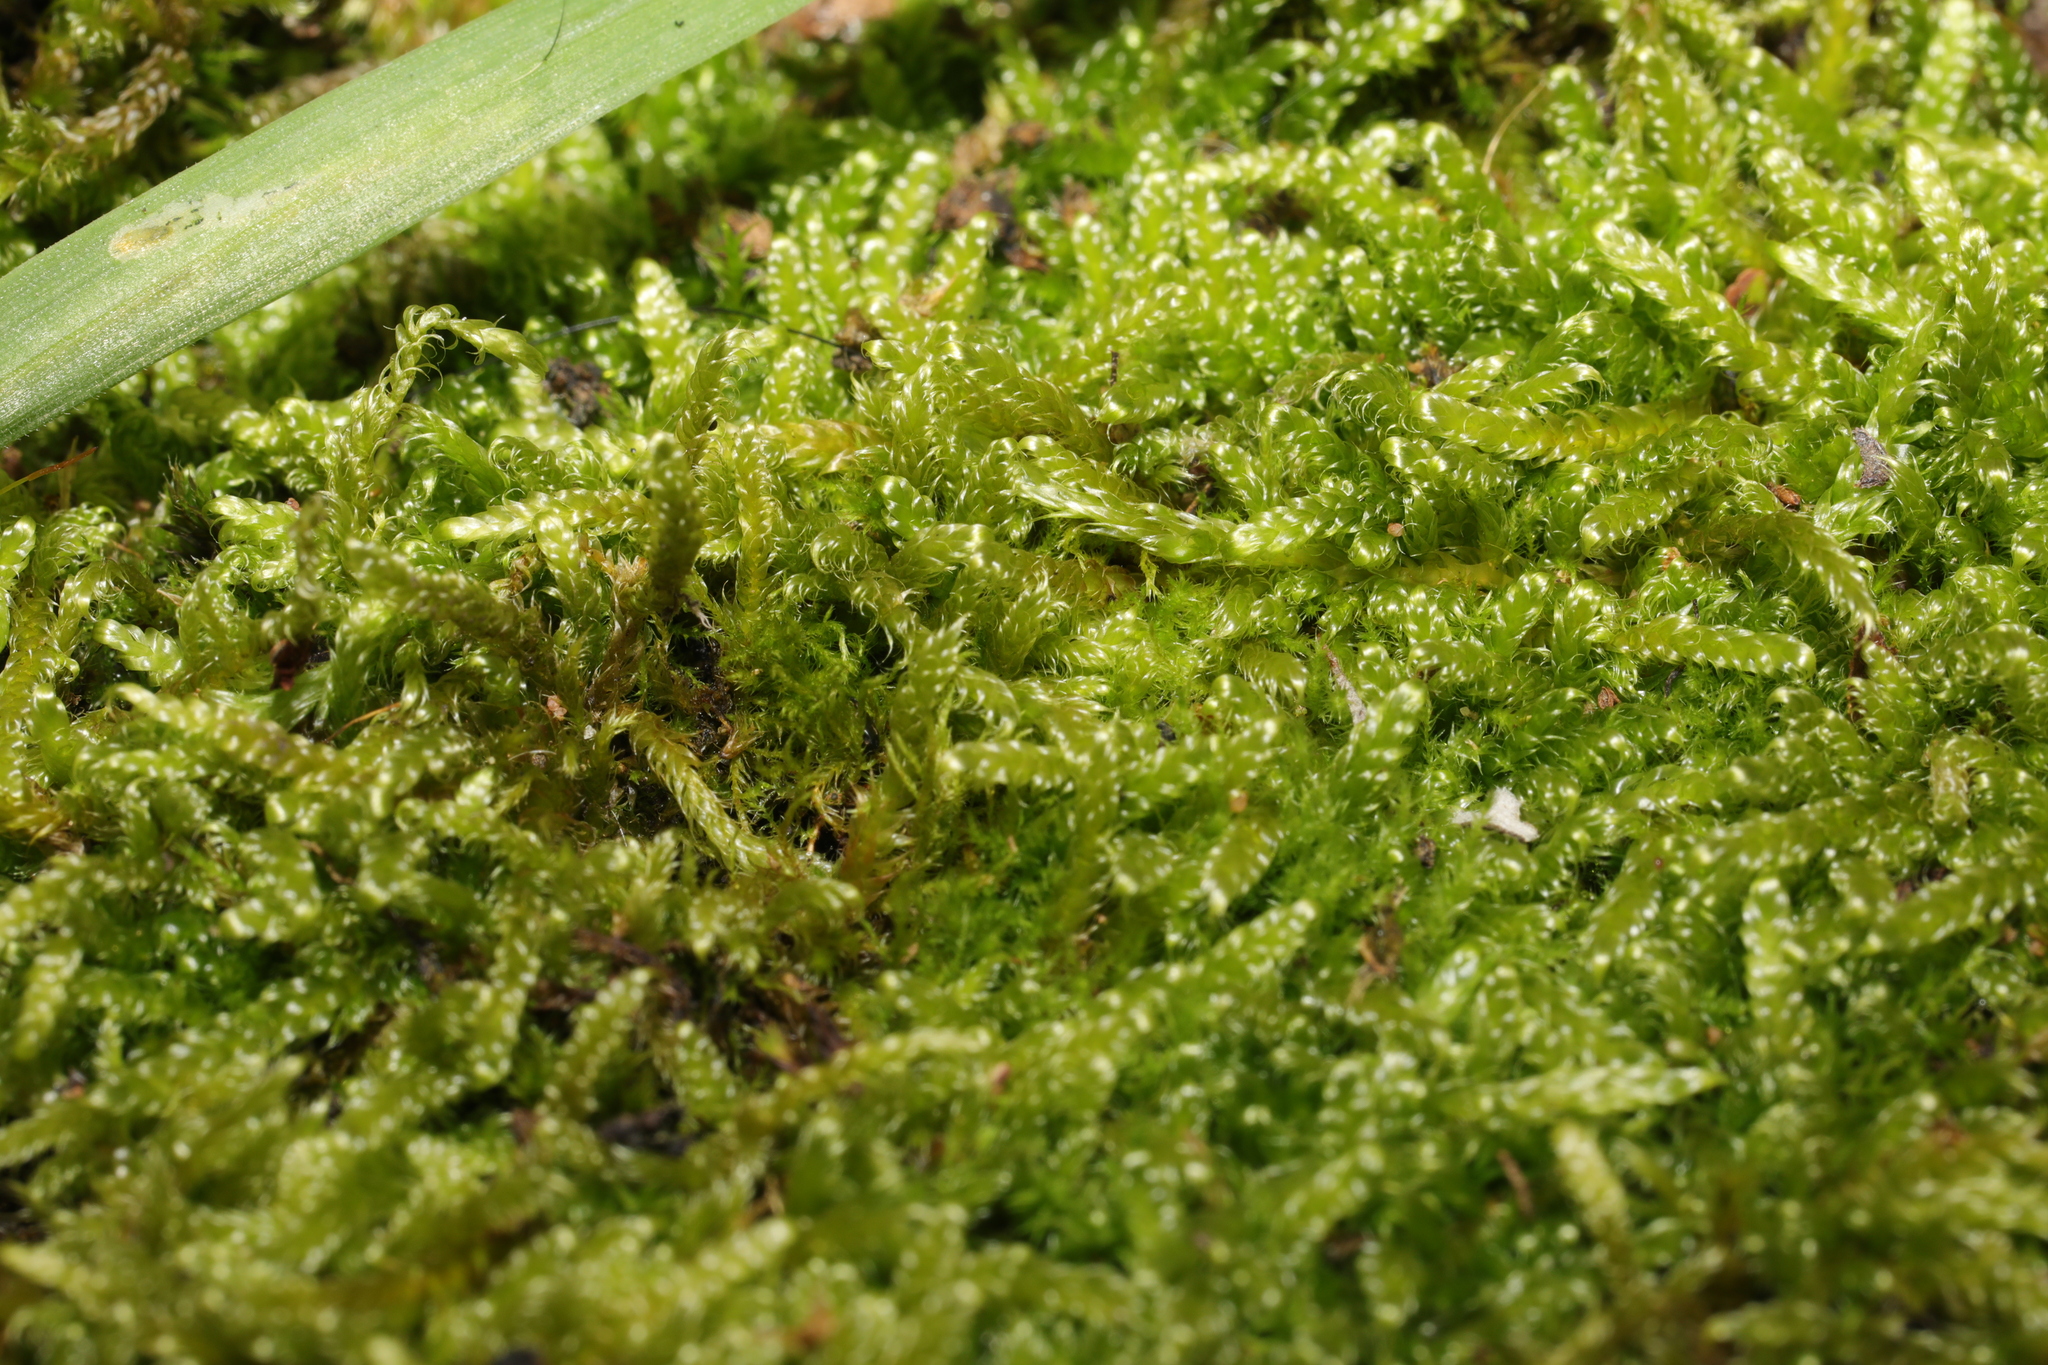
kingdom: Plantae
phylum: Bryophyta
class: Bryopsida
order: Hypnales
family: Hypnaceae
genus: Hypnum
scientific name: Hypnum cupressiforme
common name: Cypress-leaved plait-moss
